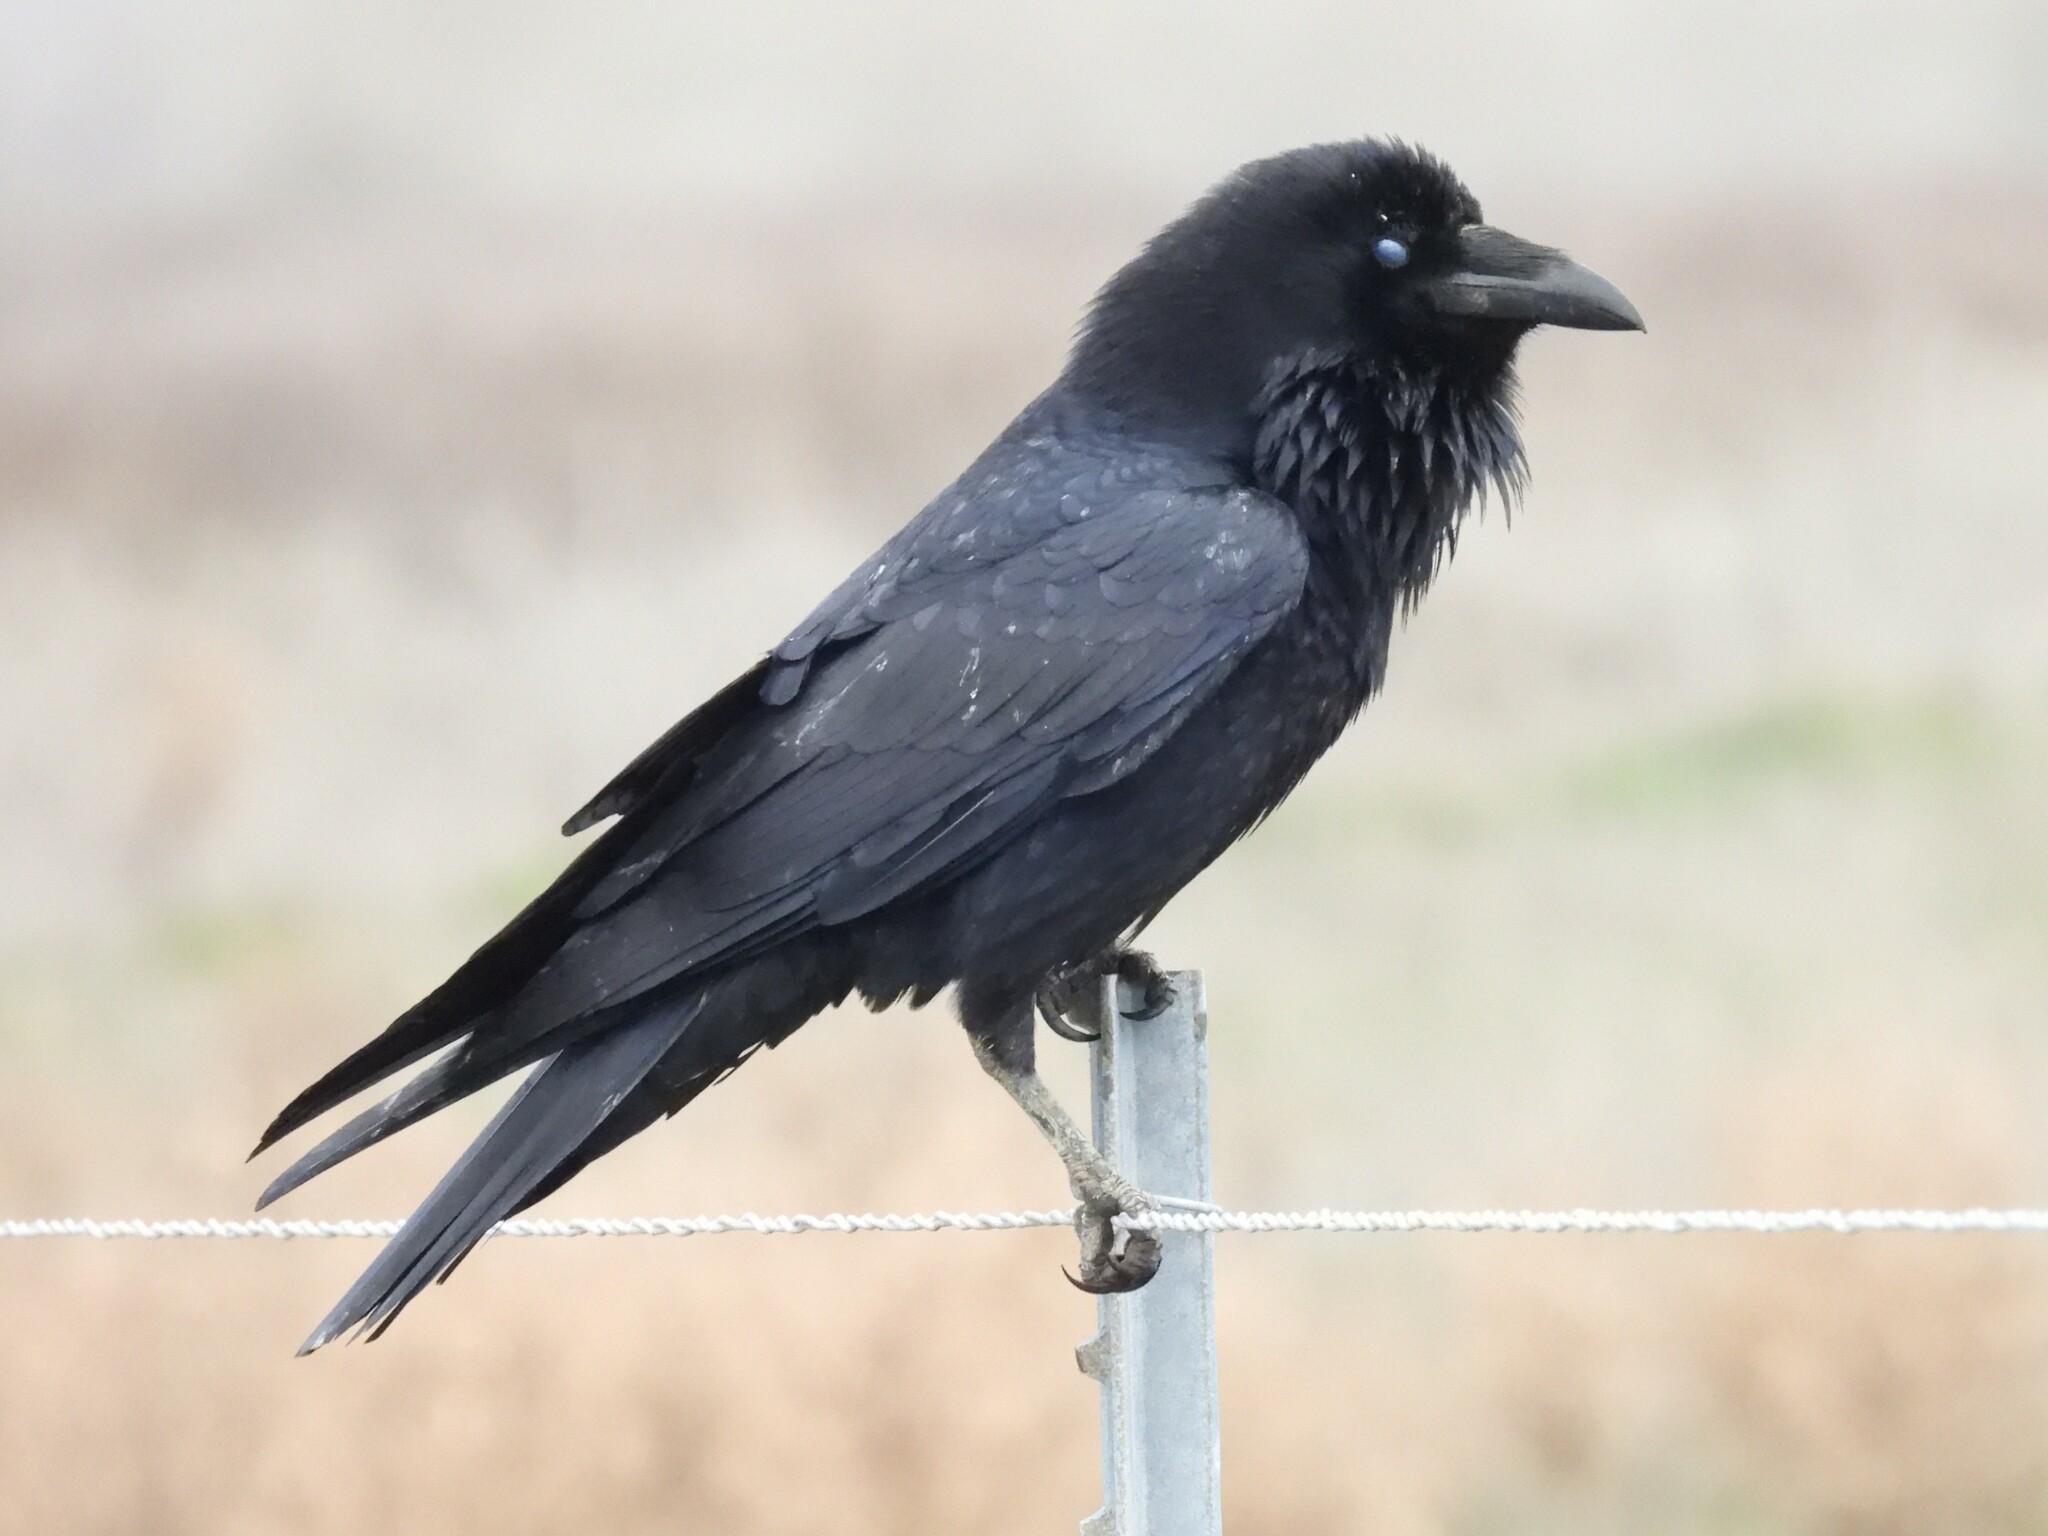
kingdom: Animalia
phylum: Chordata
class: Aves
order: Passeriformes
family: Corvidae
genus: Corvus
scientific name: Corvus corax
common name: Common raven
